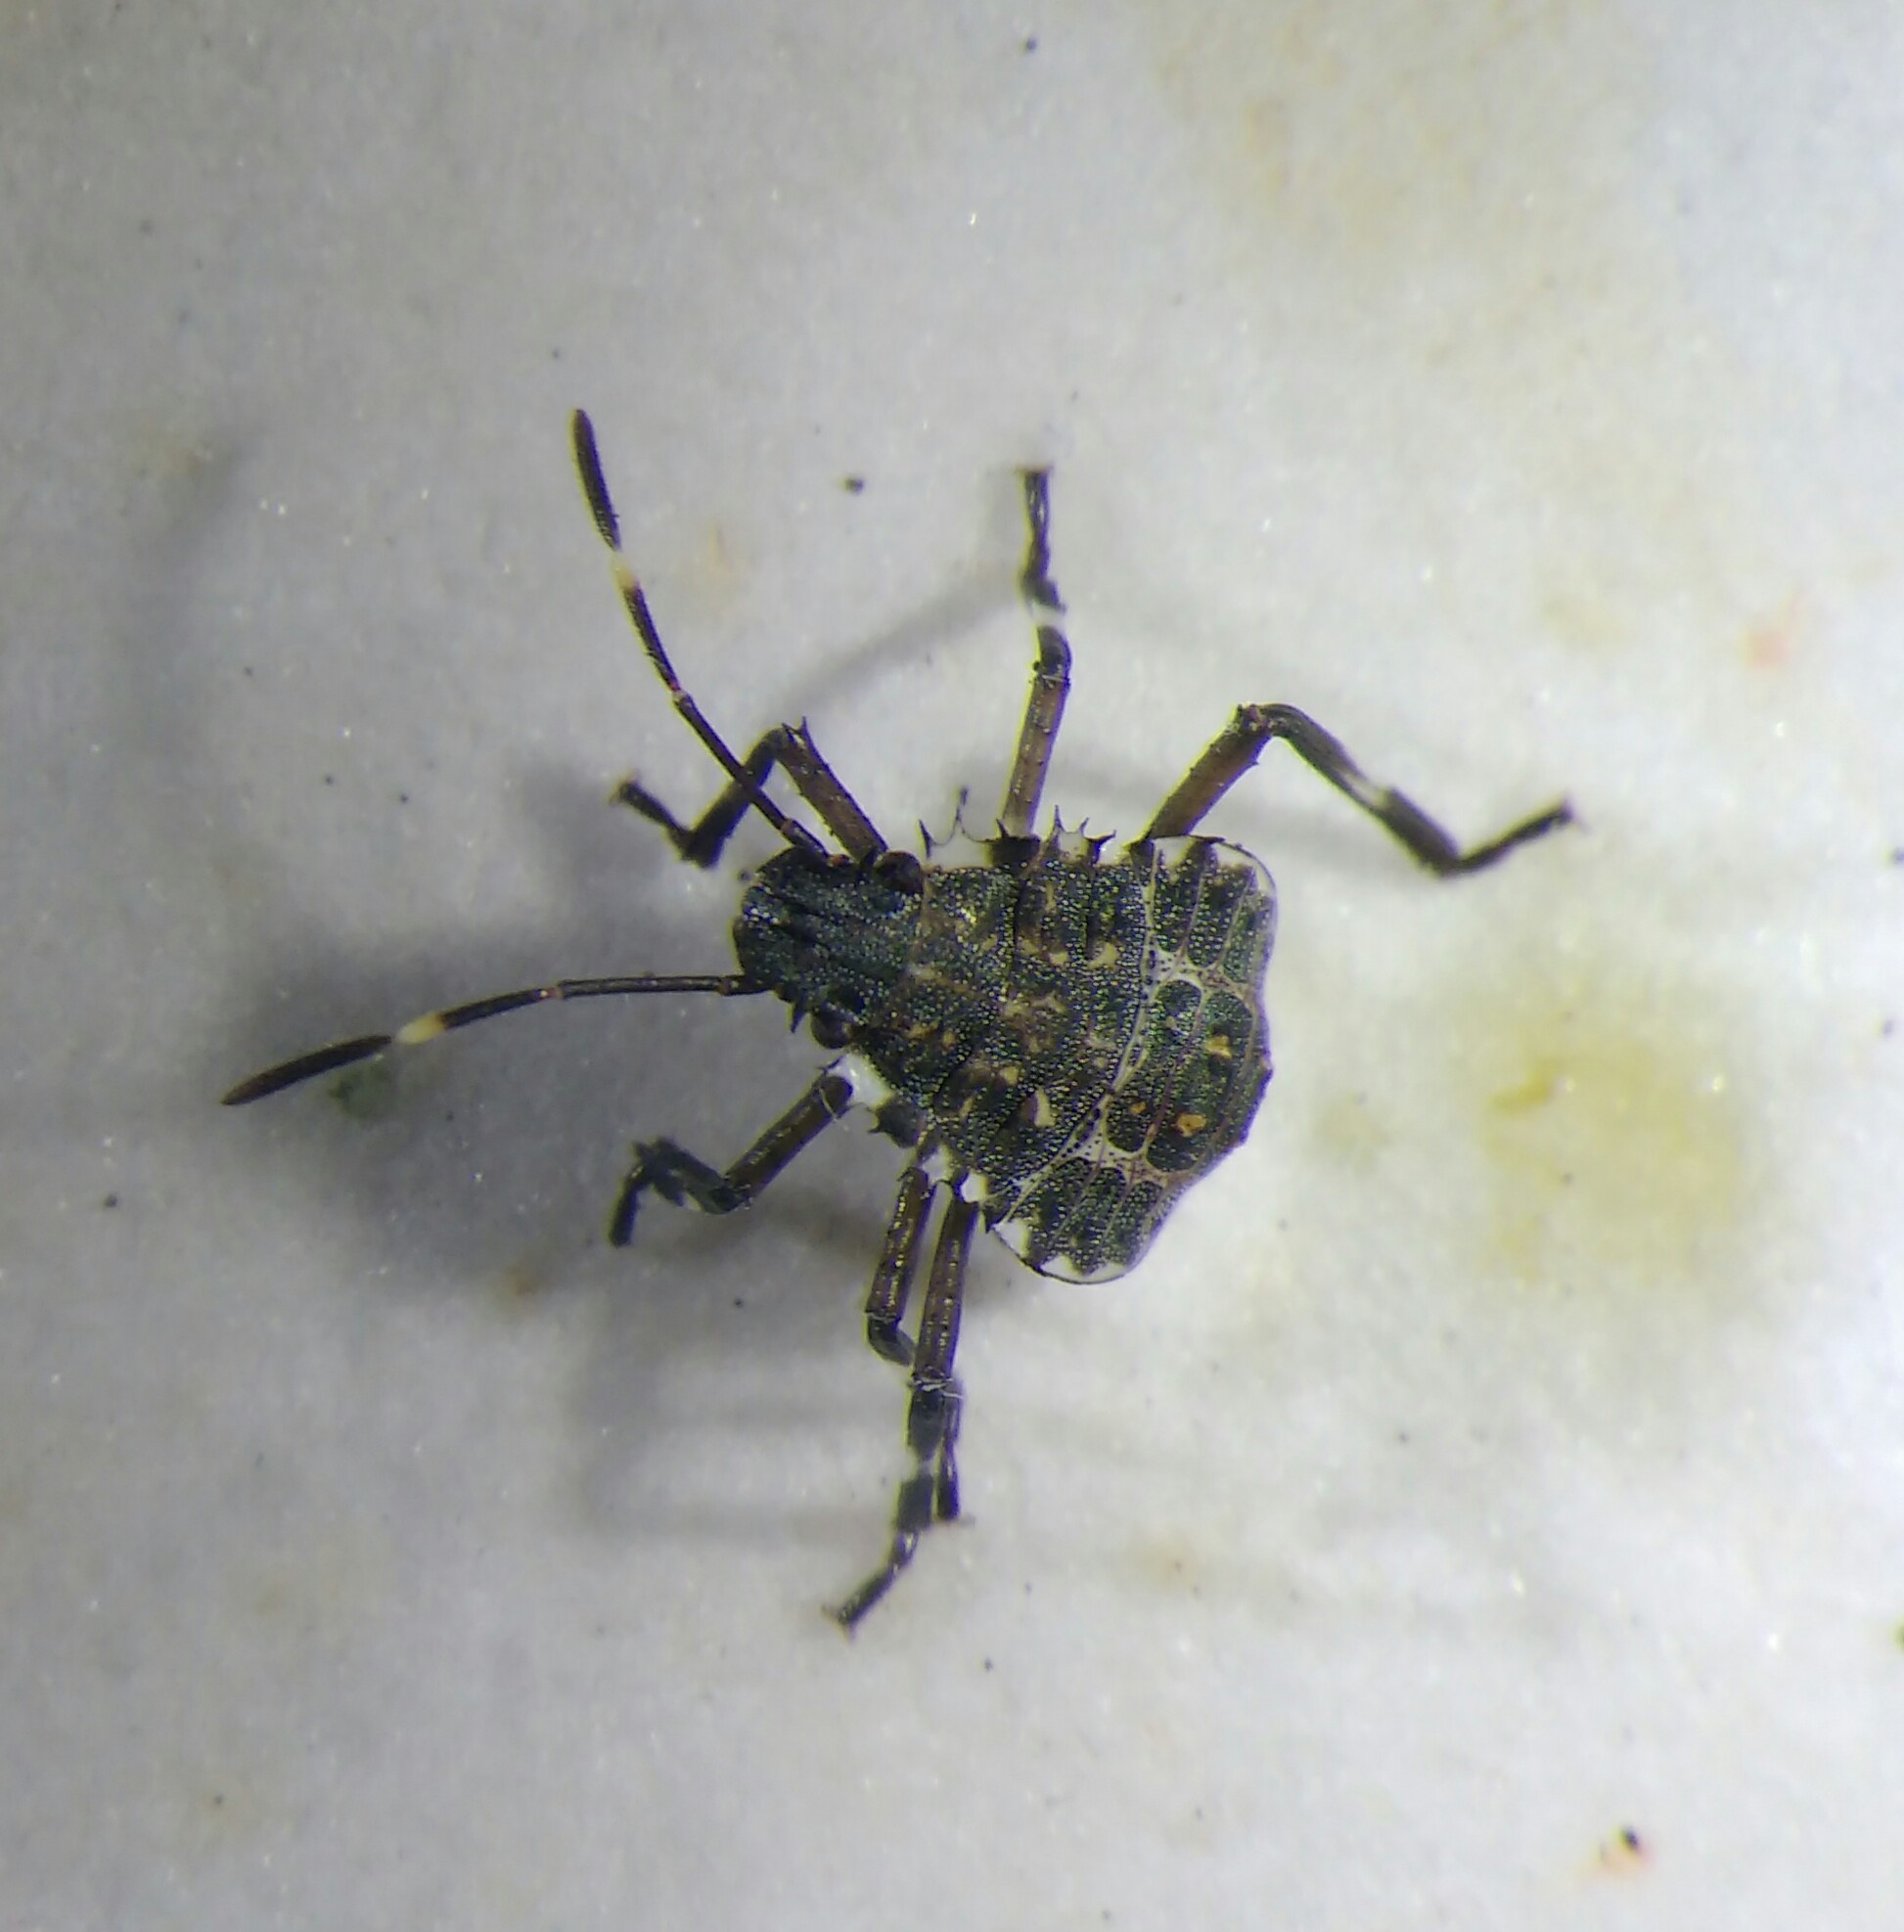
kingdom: Animalia
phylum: Arthropoda
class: Insecta
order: Hemiptera
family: Pentatomidae
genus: Halyomorpha
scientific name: Halyomorpha halys
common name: Brown marmorated stink bug
